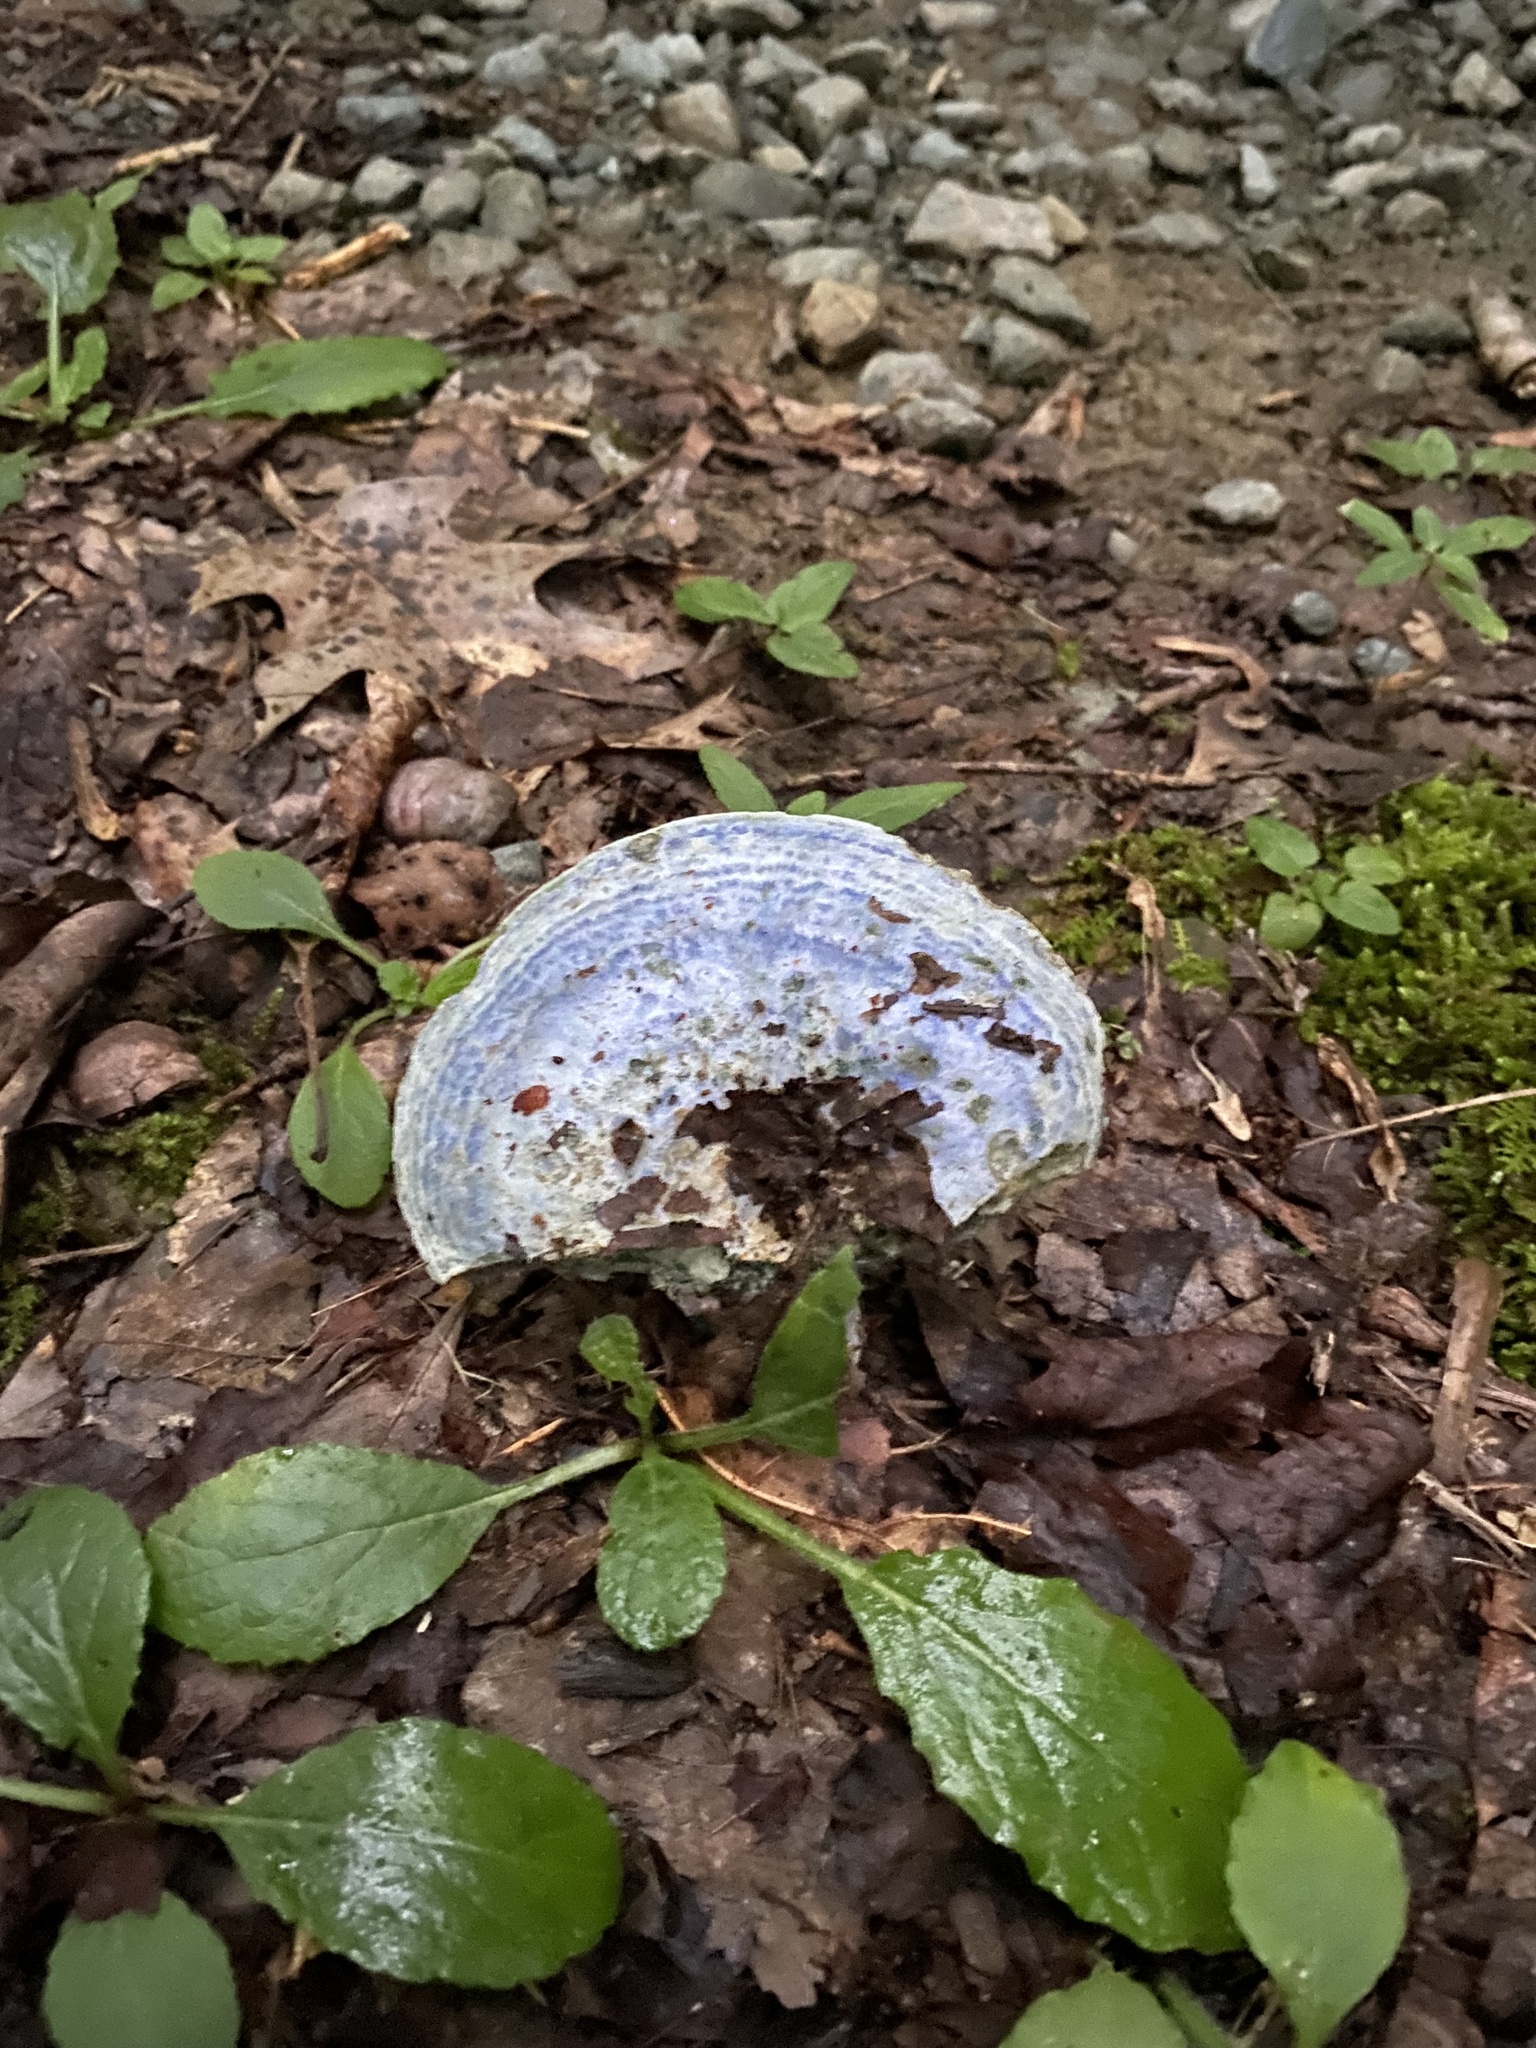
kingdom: Fungi
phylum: Basidiomycota
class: Agaricomycetes
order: Russulales
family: Russulaceae
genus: Lactarius
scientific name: Lactarius indigo
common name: Indigo milk cap
